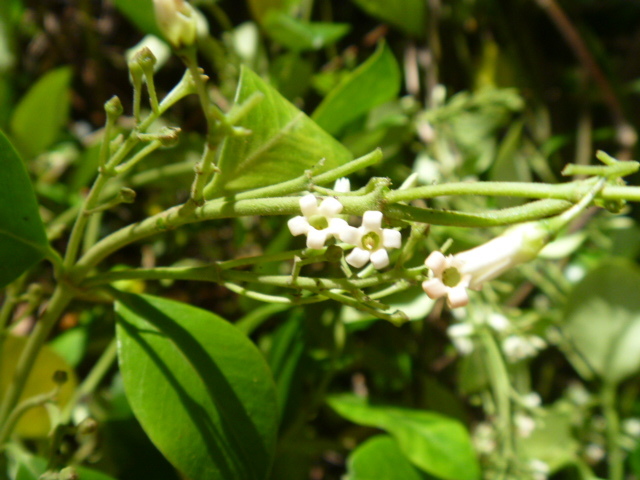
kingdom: Plantae
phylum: Tracheophyta
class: Magnoliopsida
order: Gentianales
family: Apocynaceae
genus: Parsonsia
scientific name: Parsonsia heterophylla
